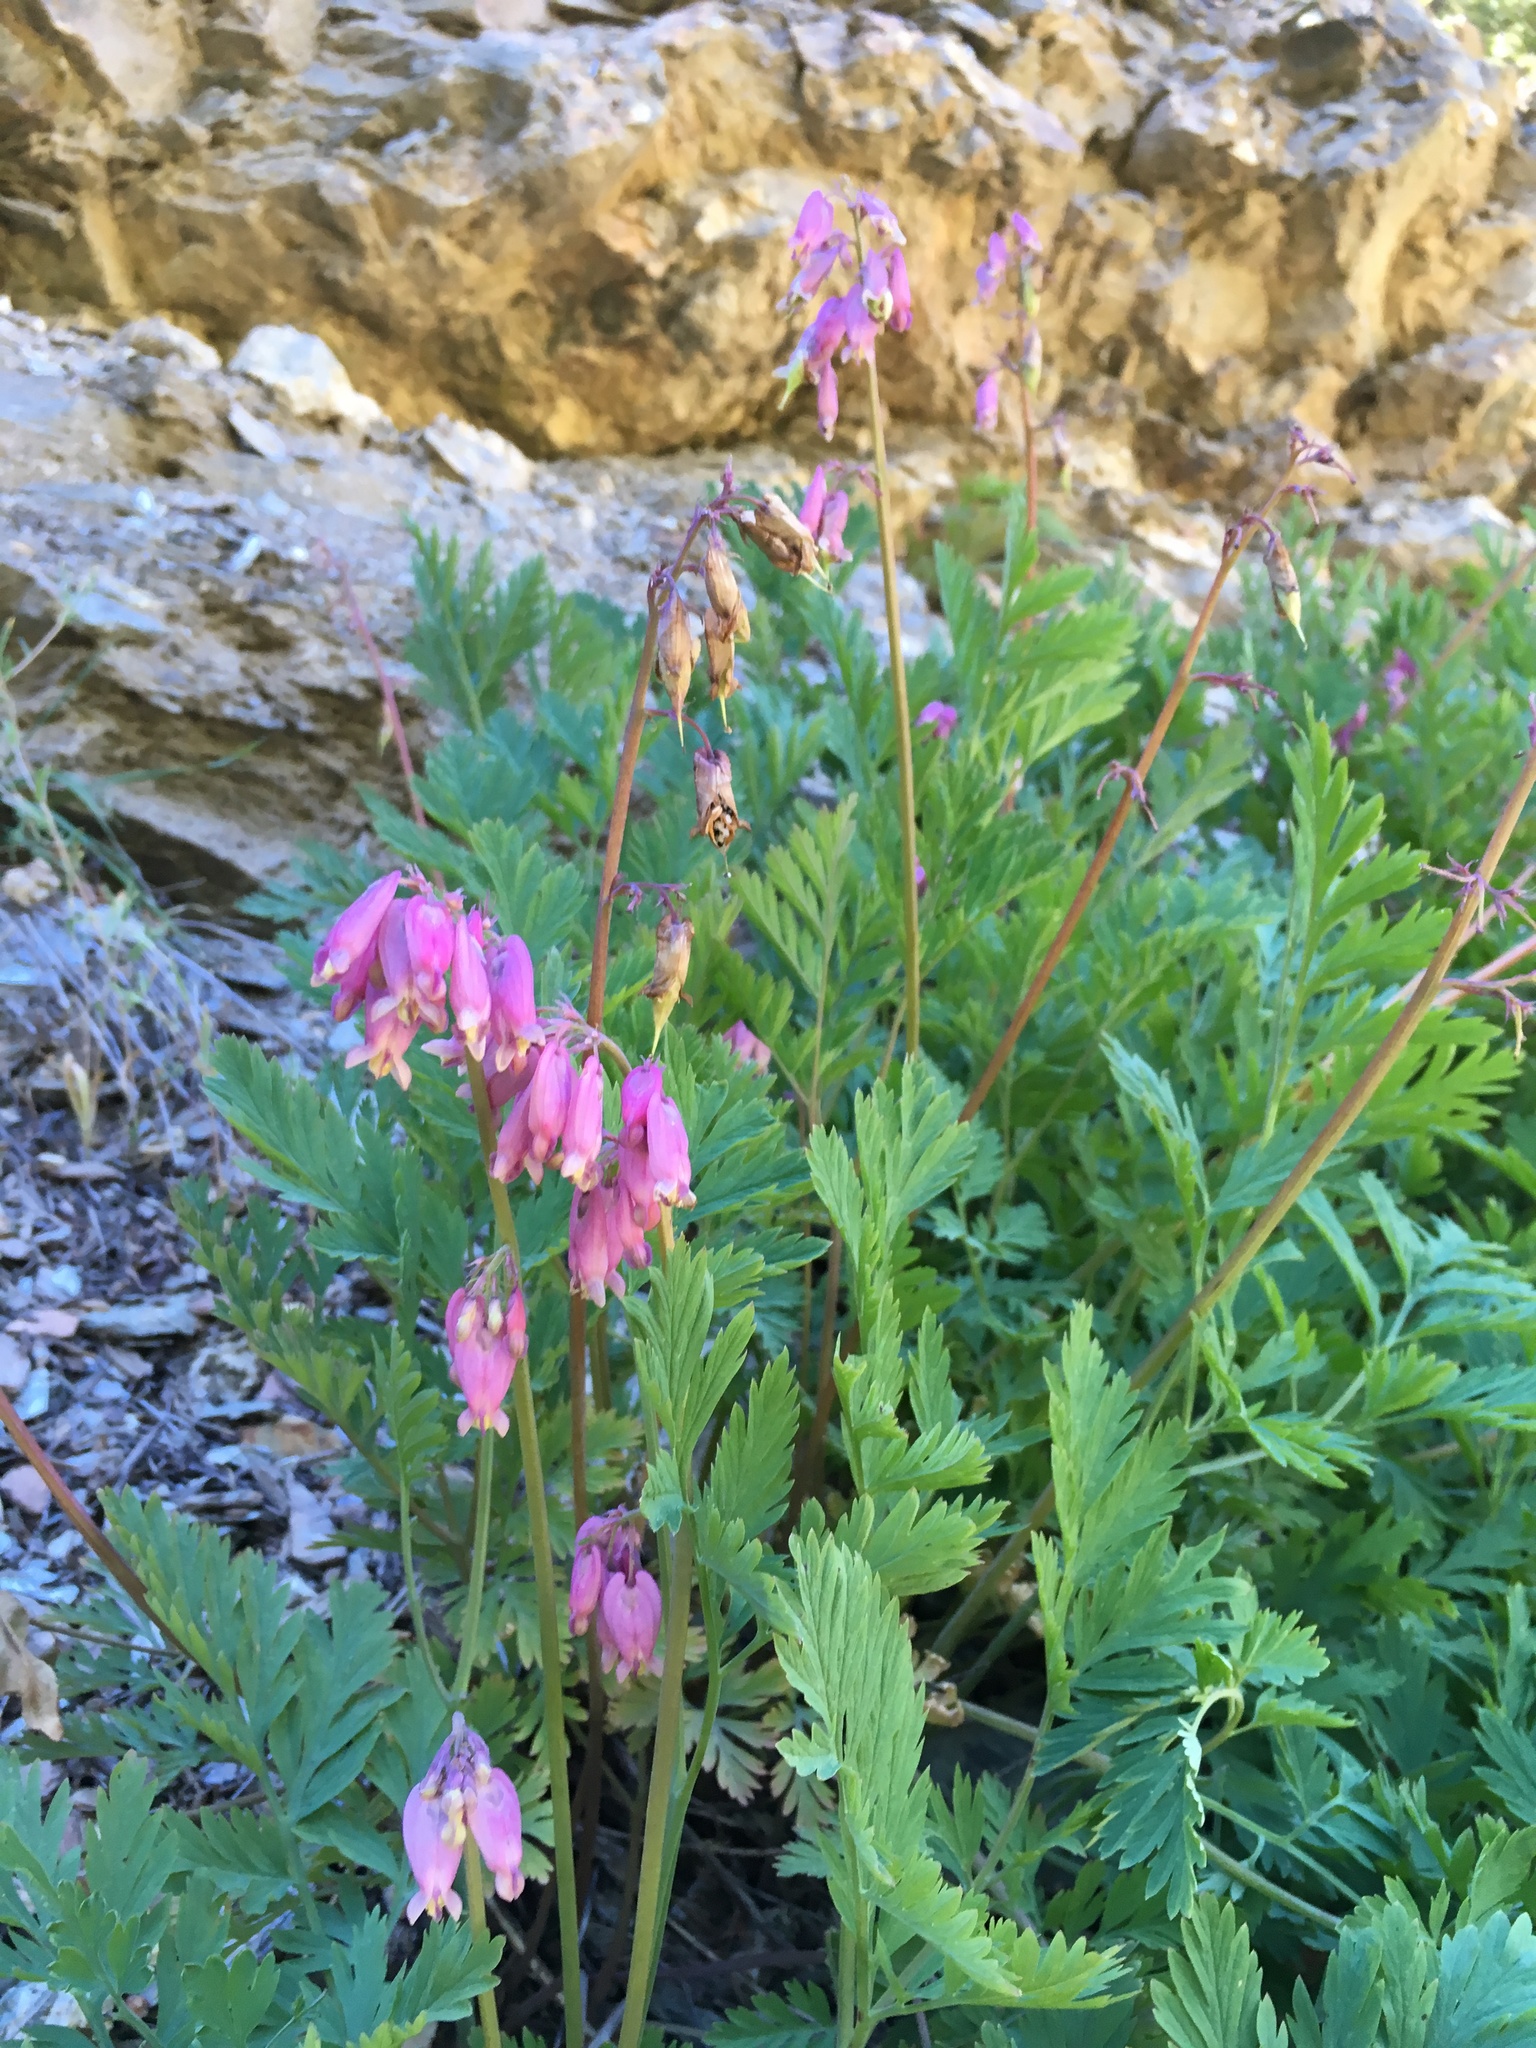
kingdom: Plantae
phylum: Tracheophyta
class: Magnoliopsida
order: Ranunculales
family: Papaveraceae
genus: Dicentra
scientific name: Dicentra formosa
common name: Bleeding-heart
